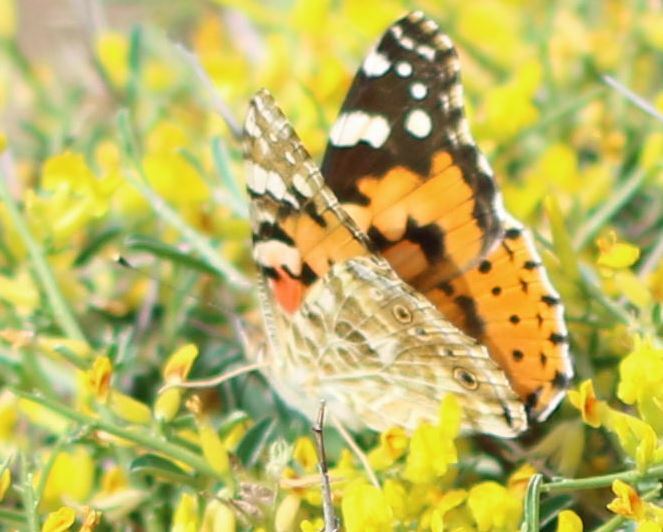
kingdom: Animalia
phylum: Arthropoda
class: Insecta
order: Lepidoptera
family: Nymphalidae
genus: Vanessa
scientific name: Vanessa cardui
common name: Painted lady
